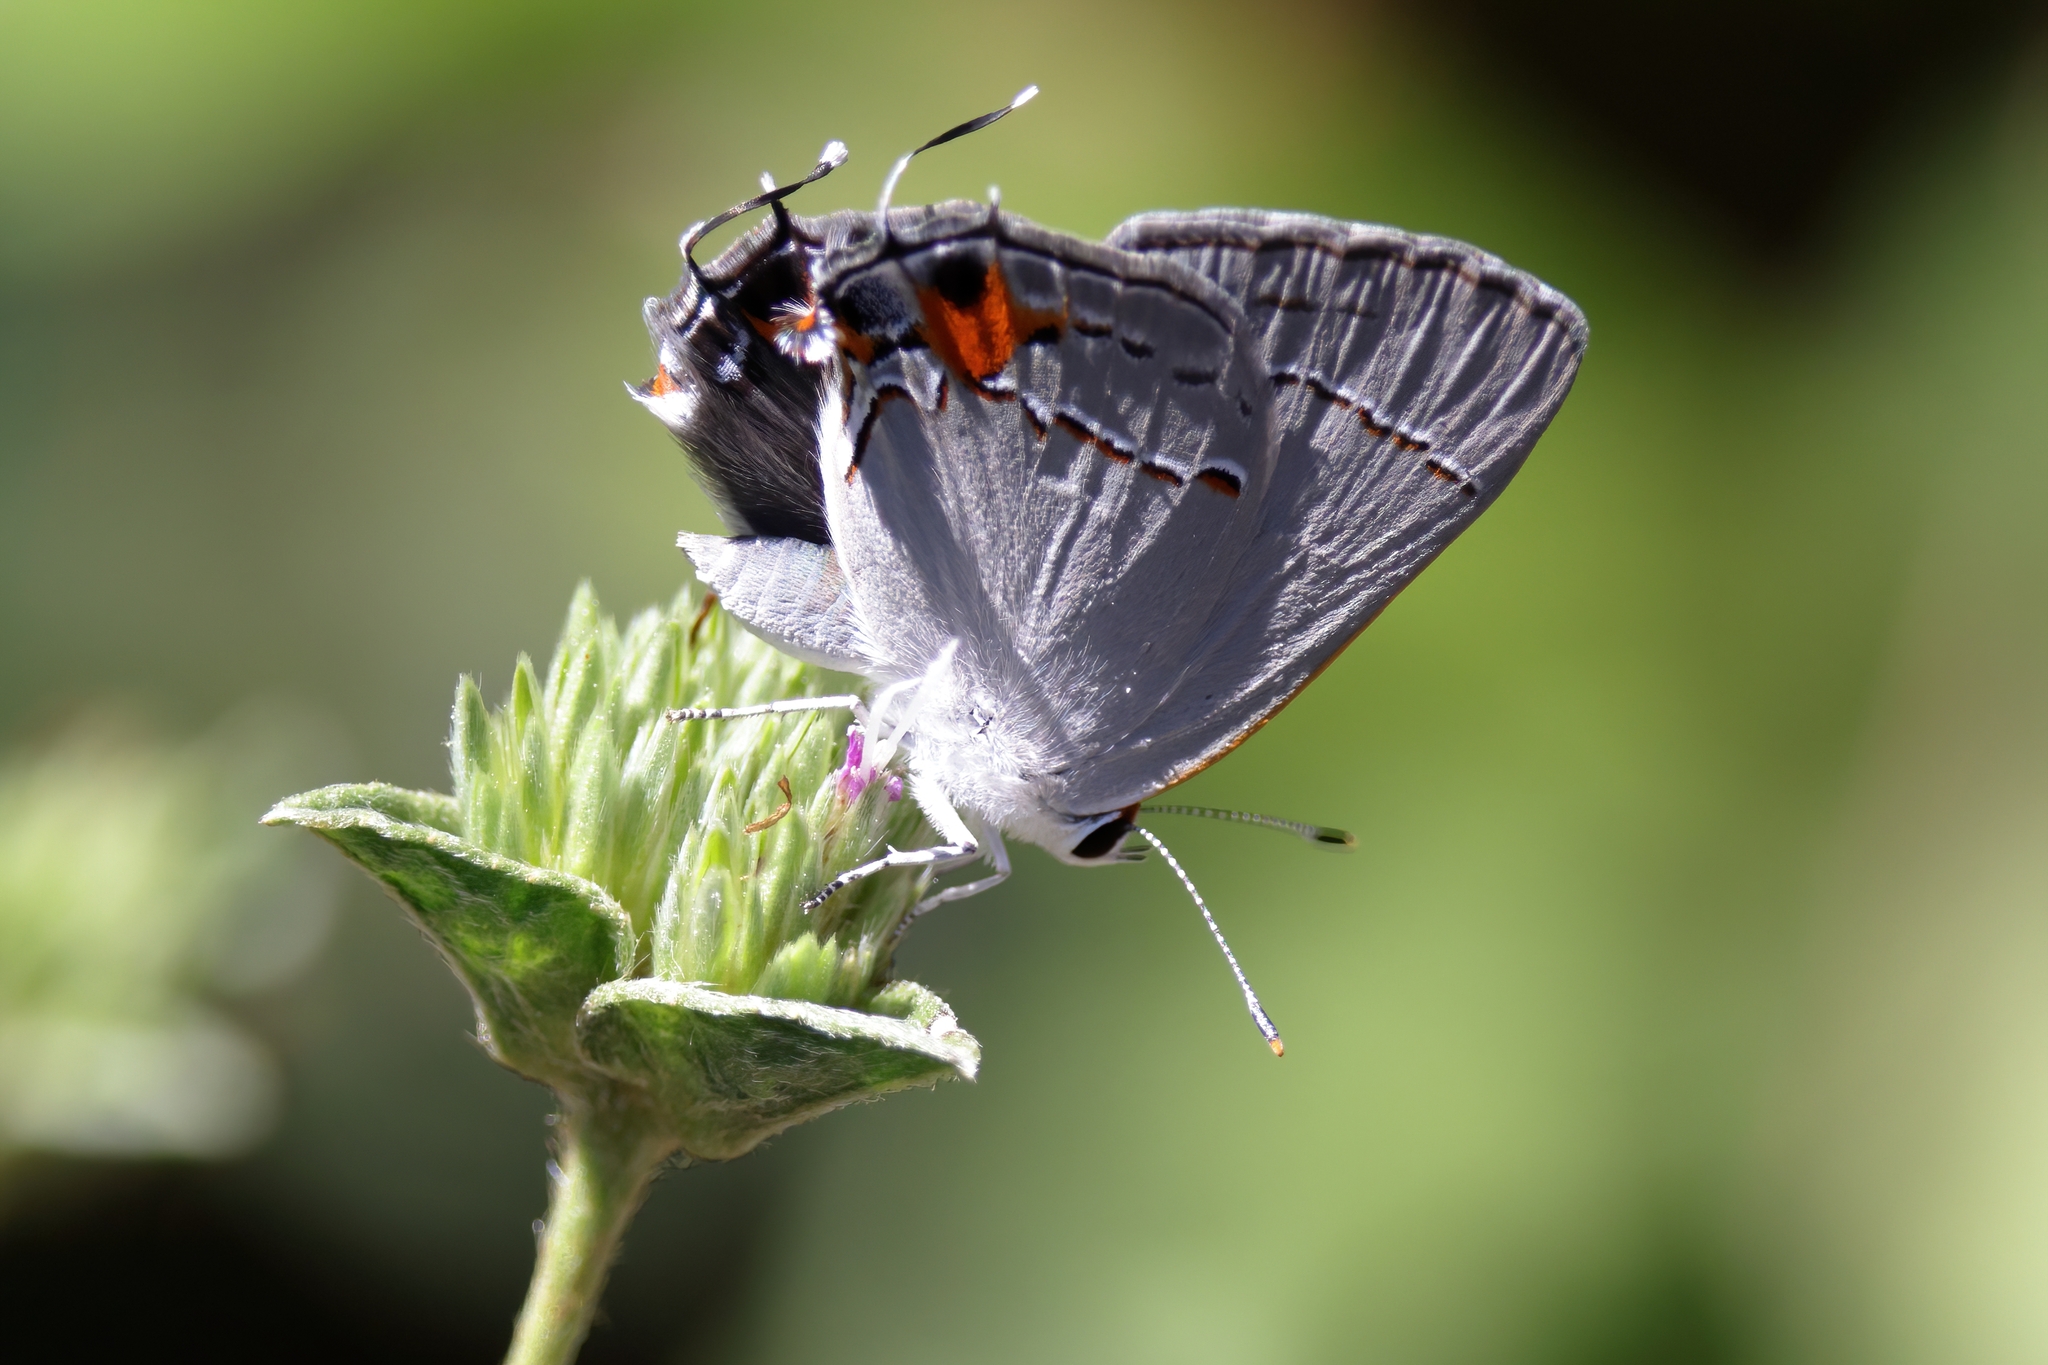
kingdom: Animalia
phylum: Arthropoda
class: Insecta
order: Lepidoptera
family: Lycaenidae
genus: Strymon
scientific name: Strymon melinus
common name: Gray hairstreak
